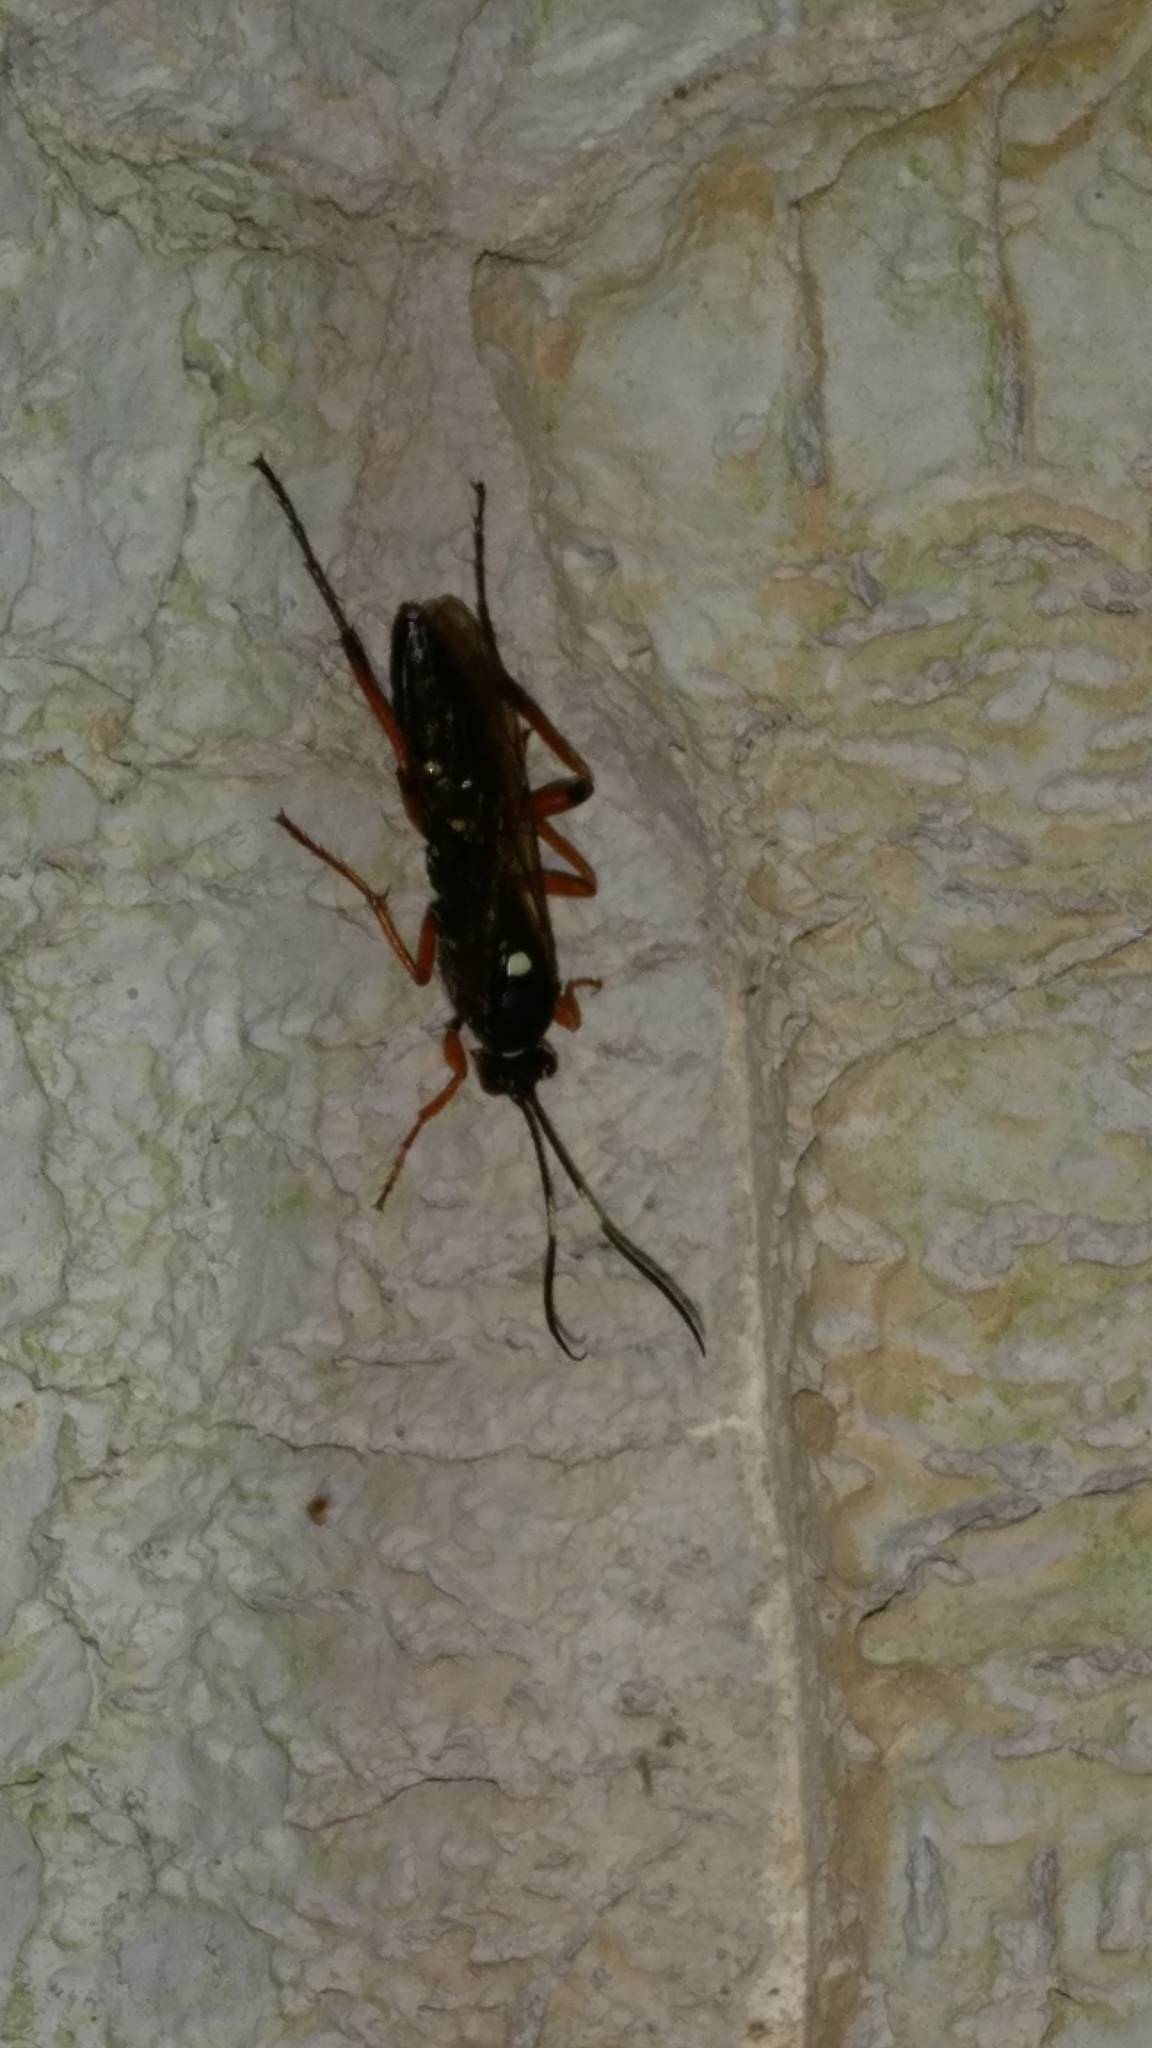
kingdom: Animalia
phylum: Arthropoda
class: Insecta
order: Hymenoptera
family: Ichneumonidae
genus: Diphyus
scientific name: Diphyus quadripunctorius
